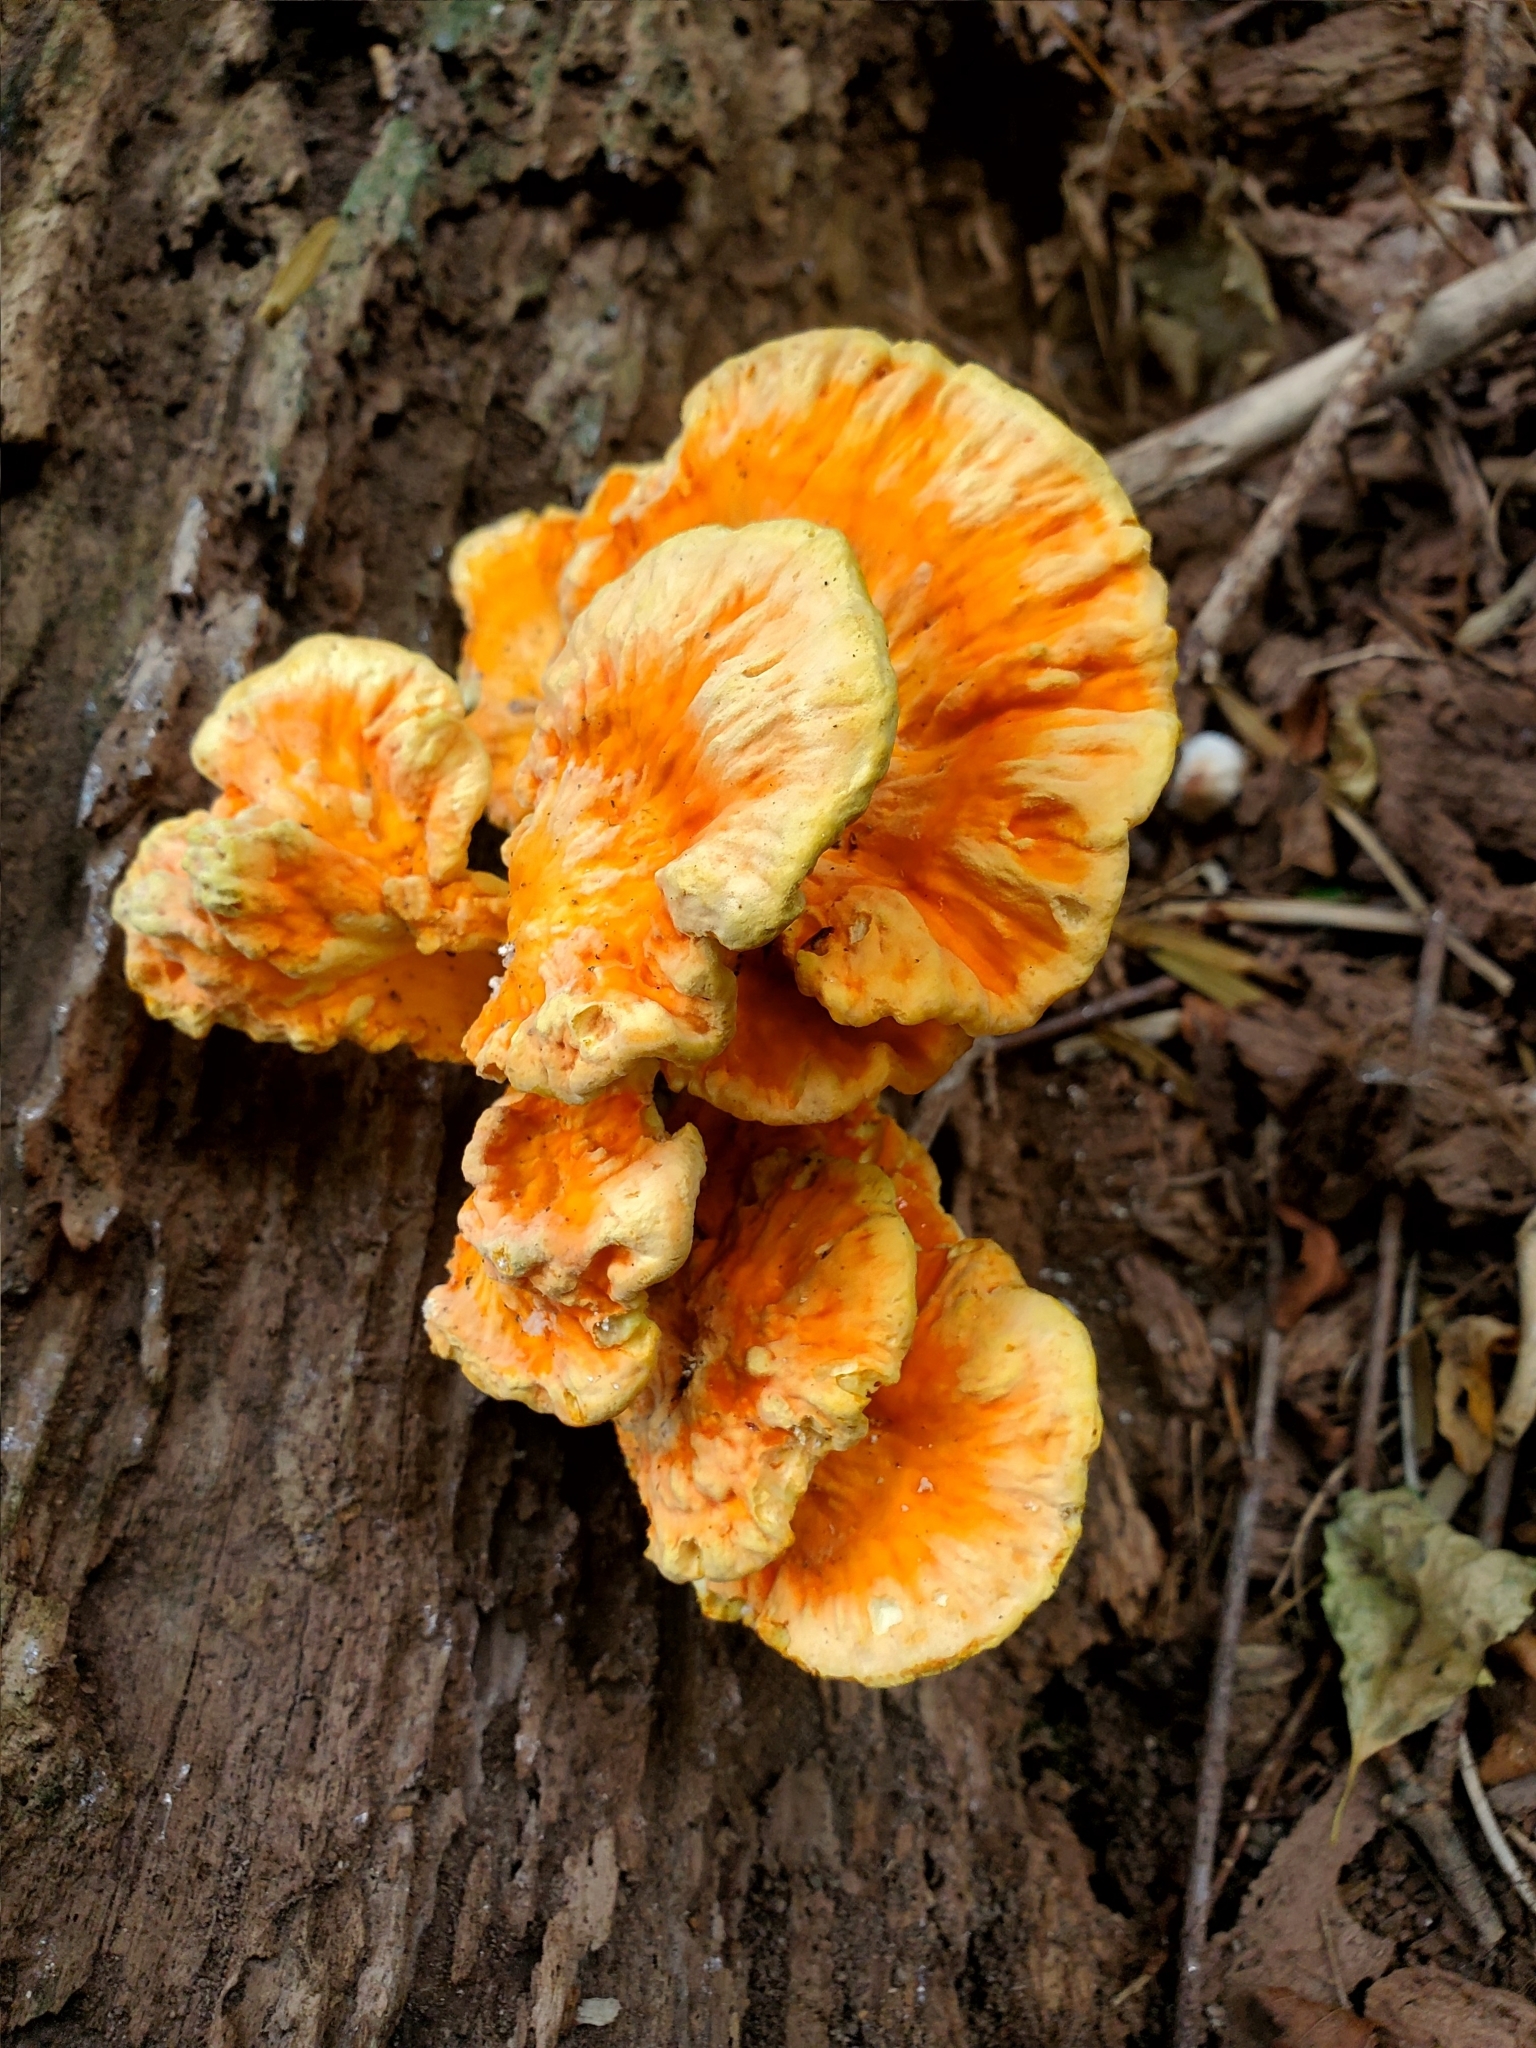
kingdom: Fungi
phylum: Basidiomycota
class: Agaricomycetes
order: Polyporales
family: Laetiporaceae
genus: Laetiporus
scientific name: Laetiporus sulphureus
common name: Chicken of the woods
